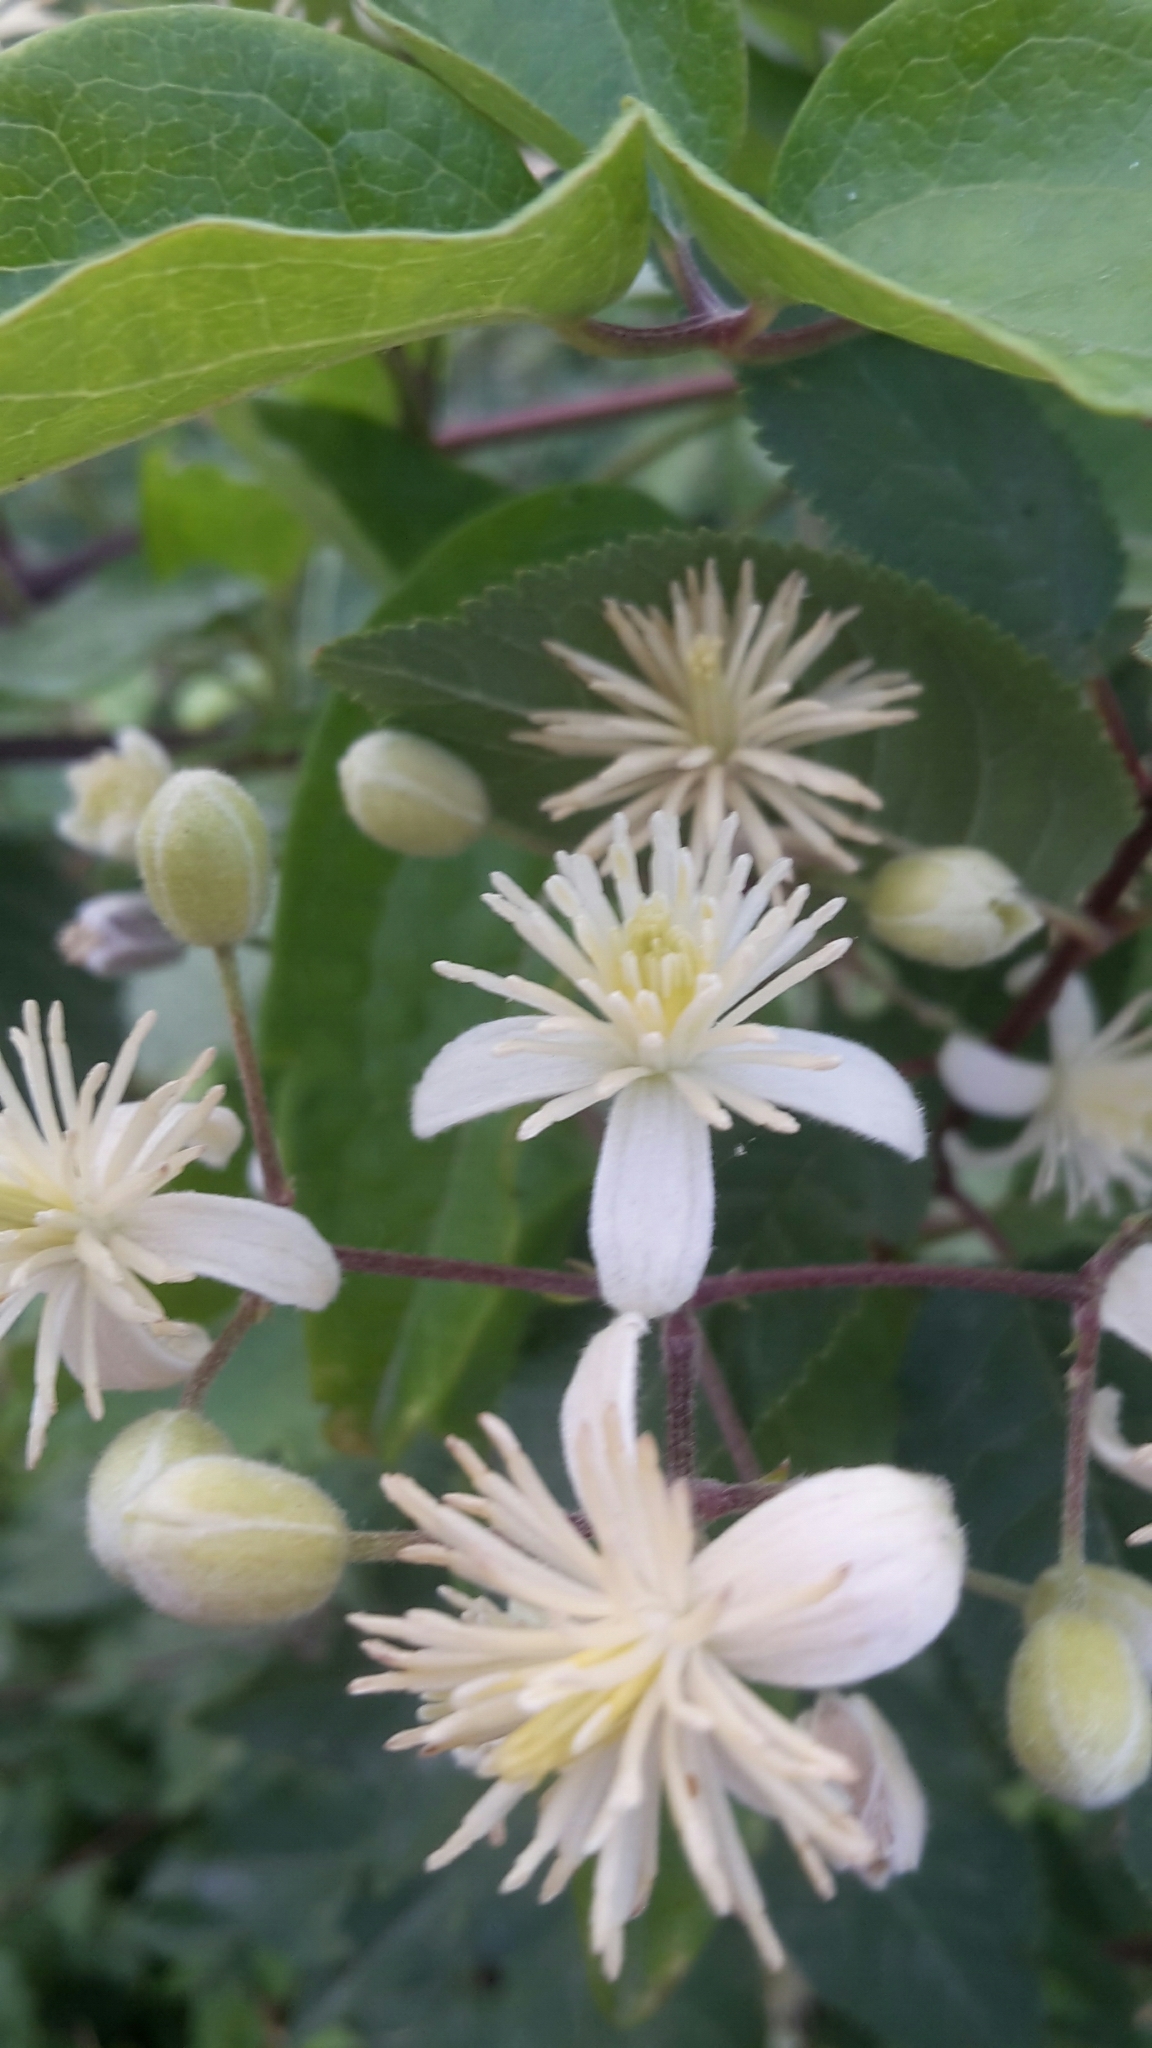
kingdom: Plantae
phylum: Tracheophyta
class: Magnoliopsida
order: Ranunculales
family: Ranunculaceae
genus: Clematis
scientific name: Clematis vitalba
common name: Evergreen clematis
